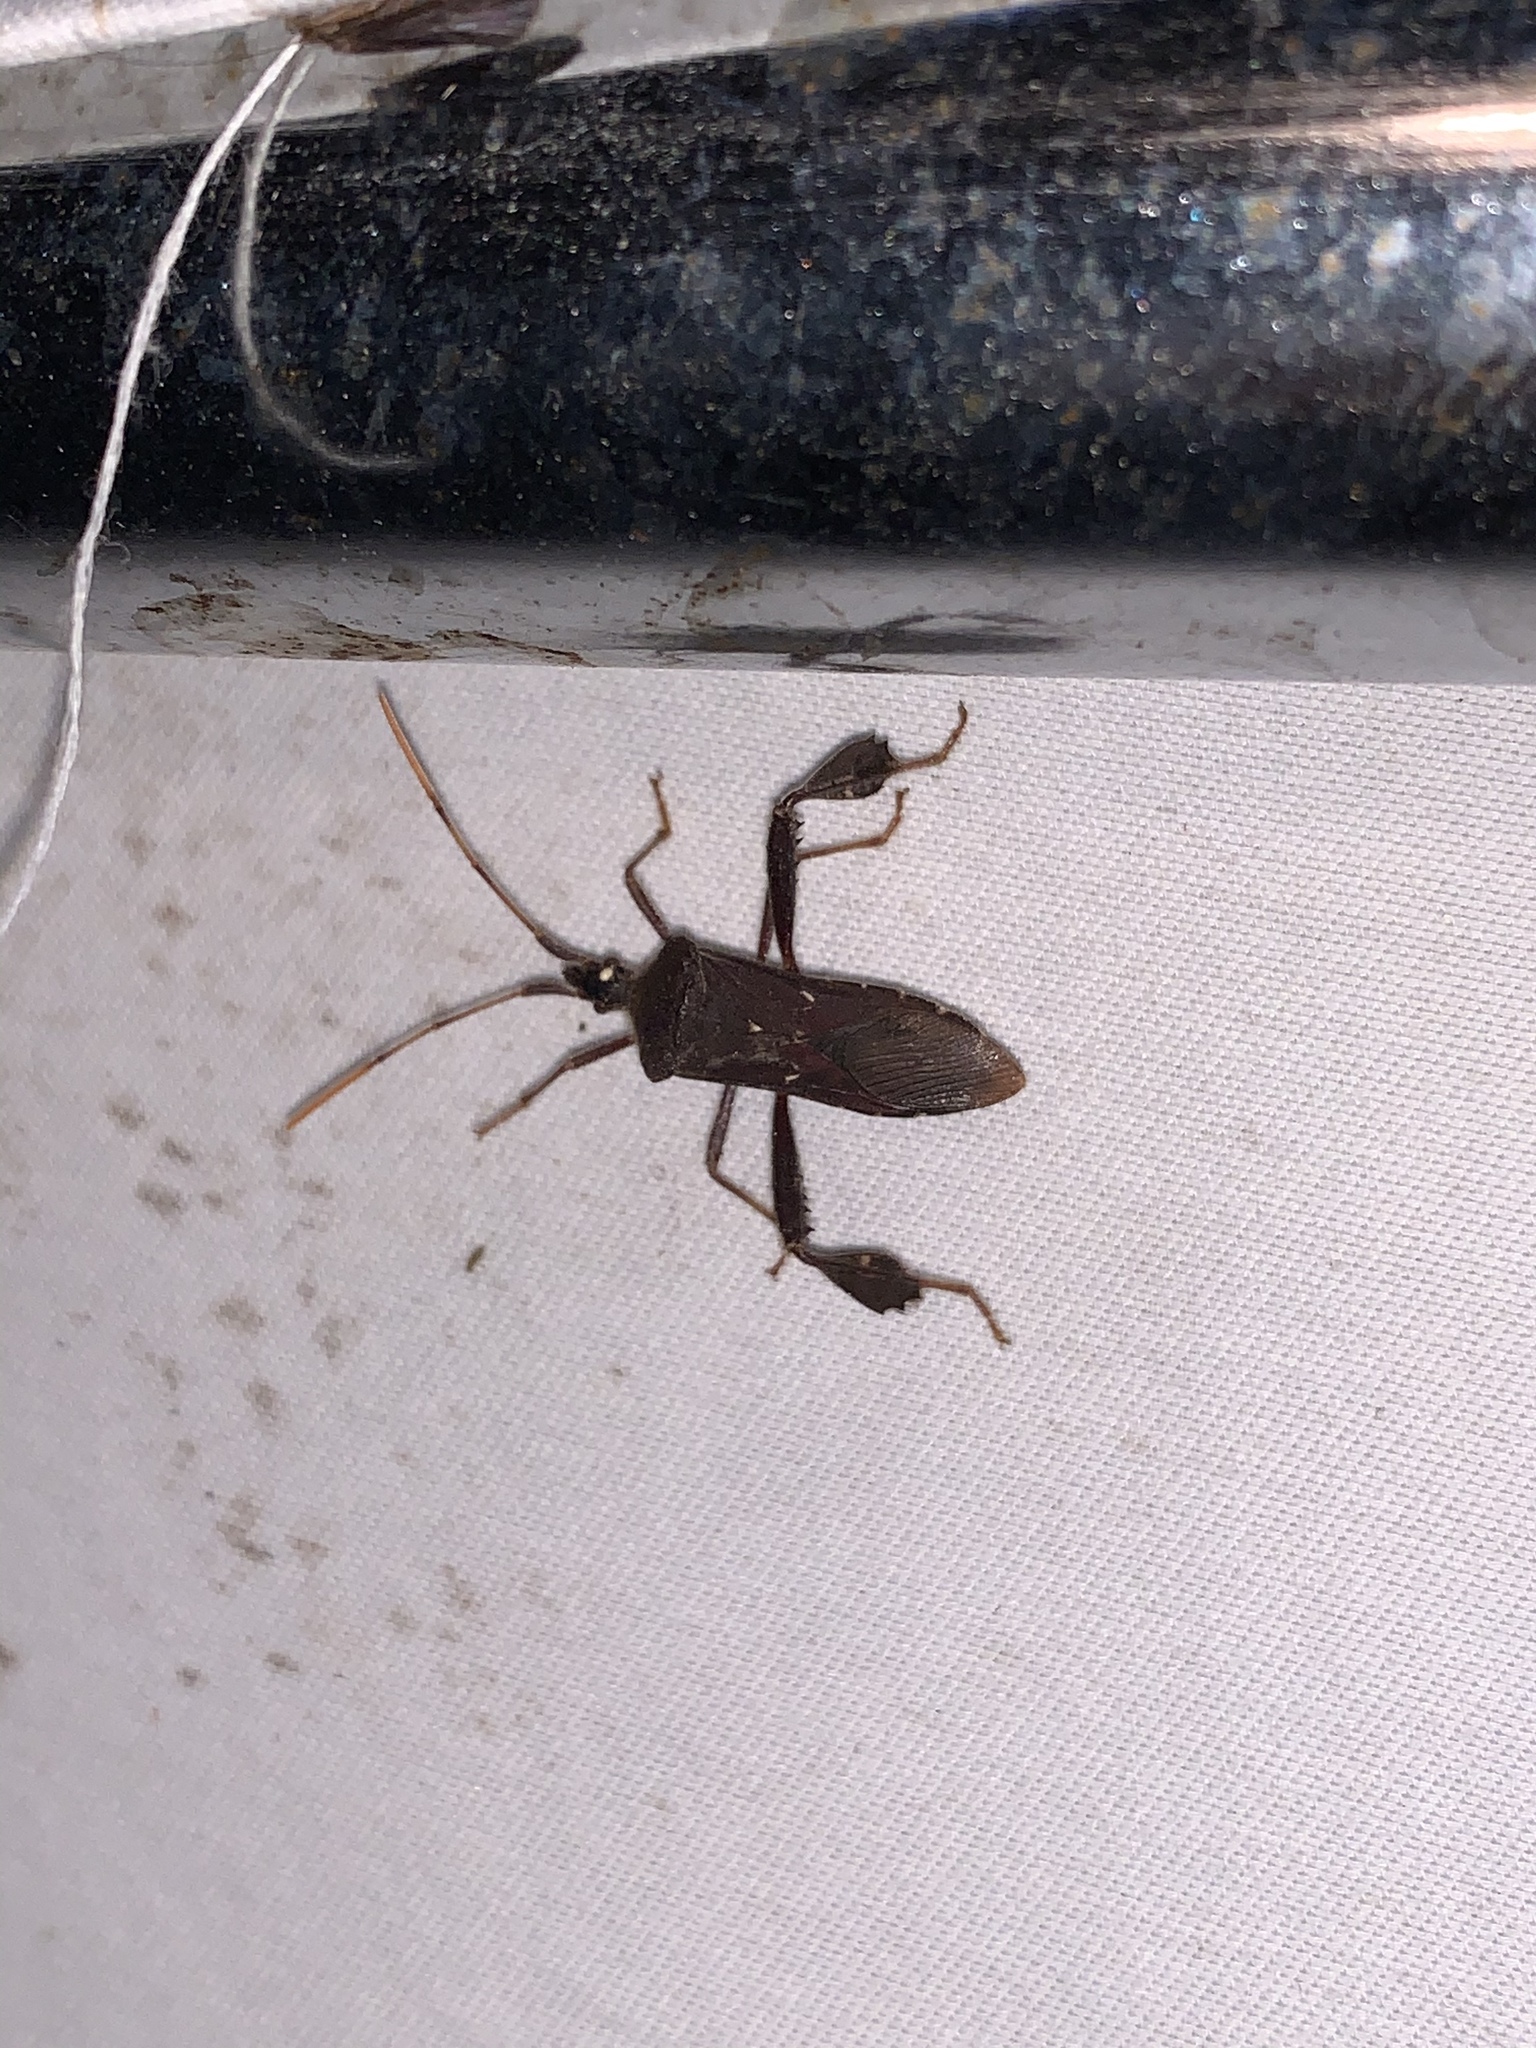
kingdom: Animalia
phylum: Arthropoda
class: Insecta
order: Hemiptera
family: Coreidae
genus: Leptoglossus
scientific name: Leptoglossus oppositus
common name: Northern leaf-footed bug
